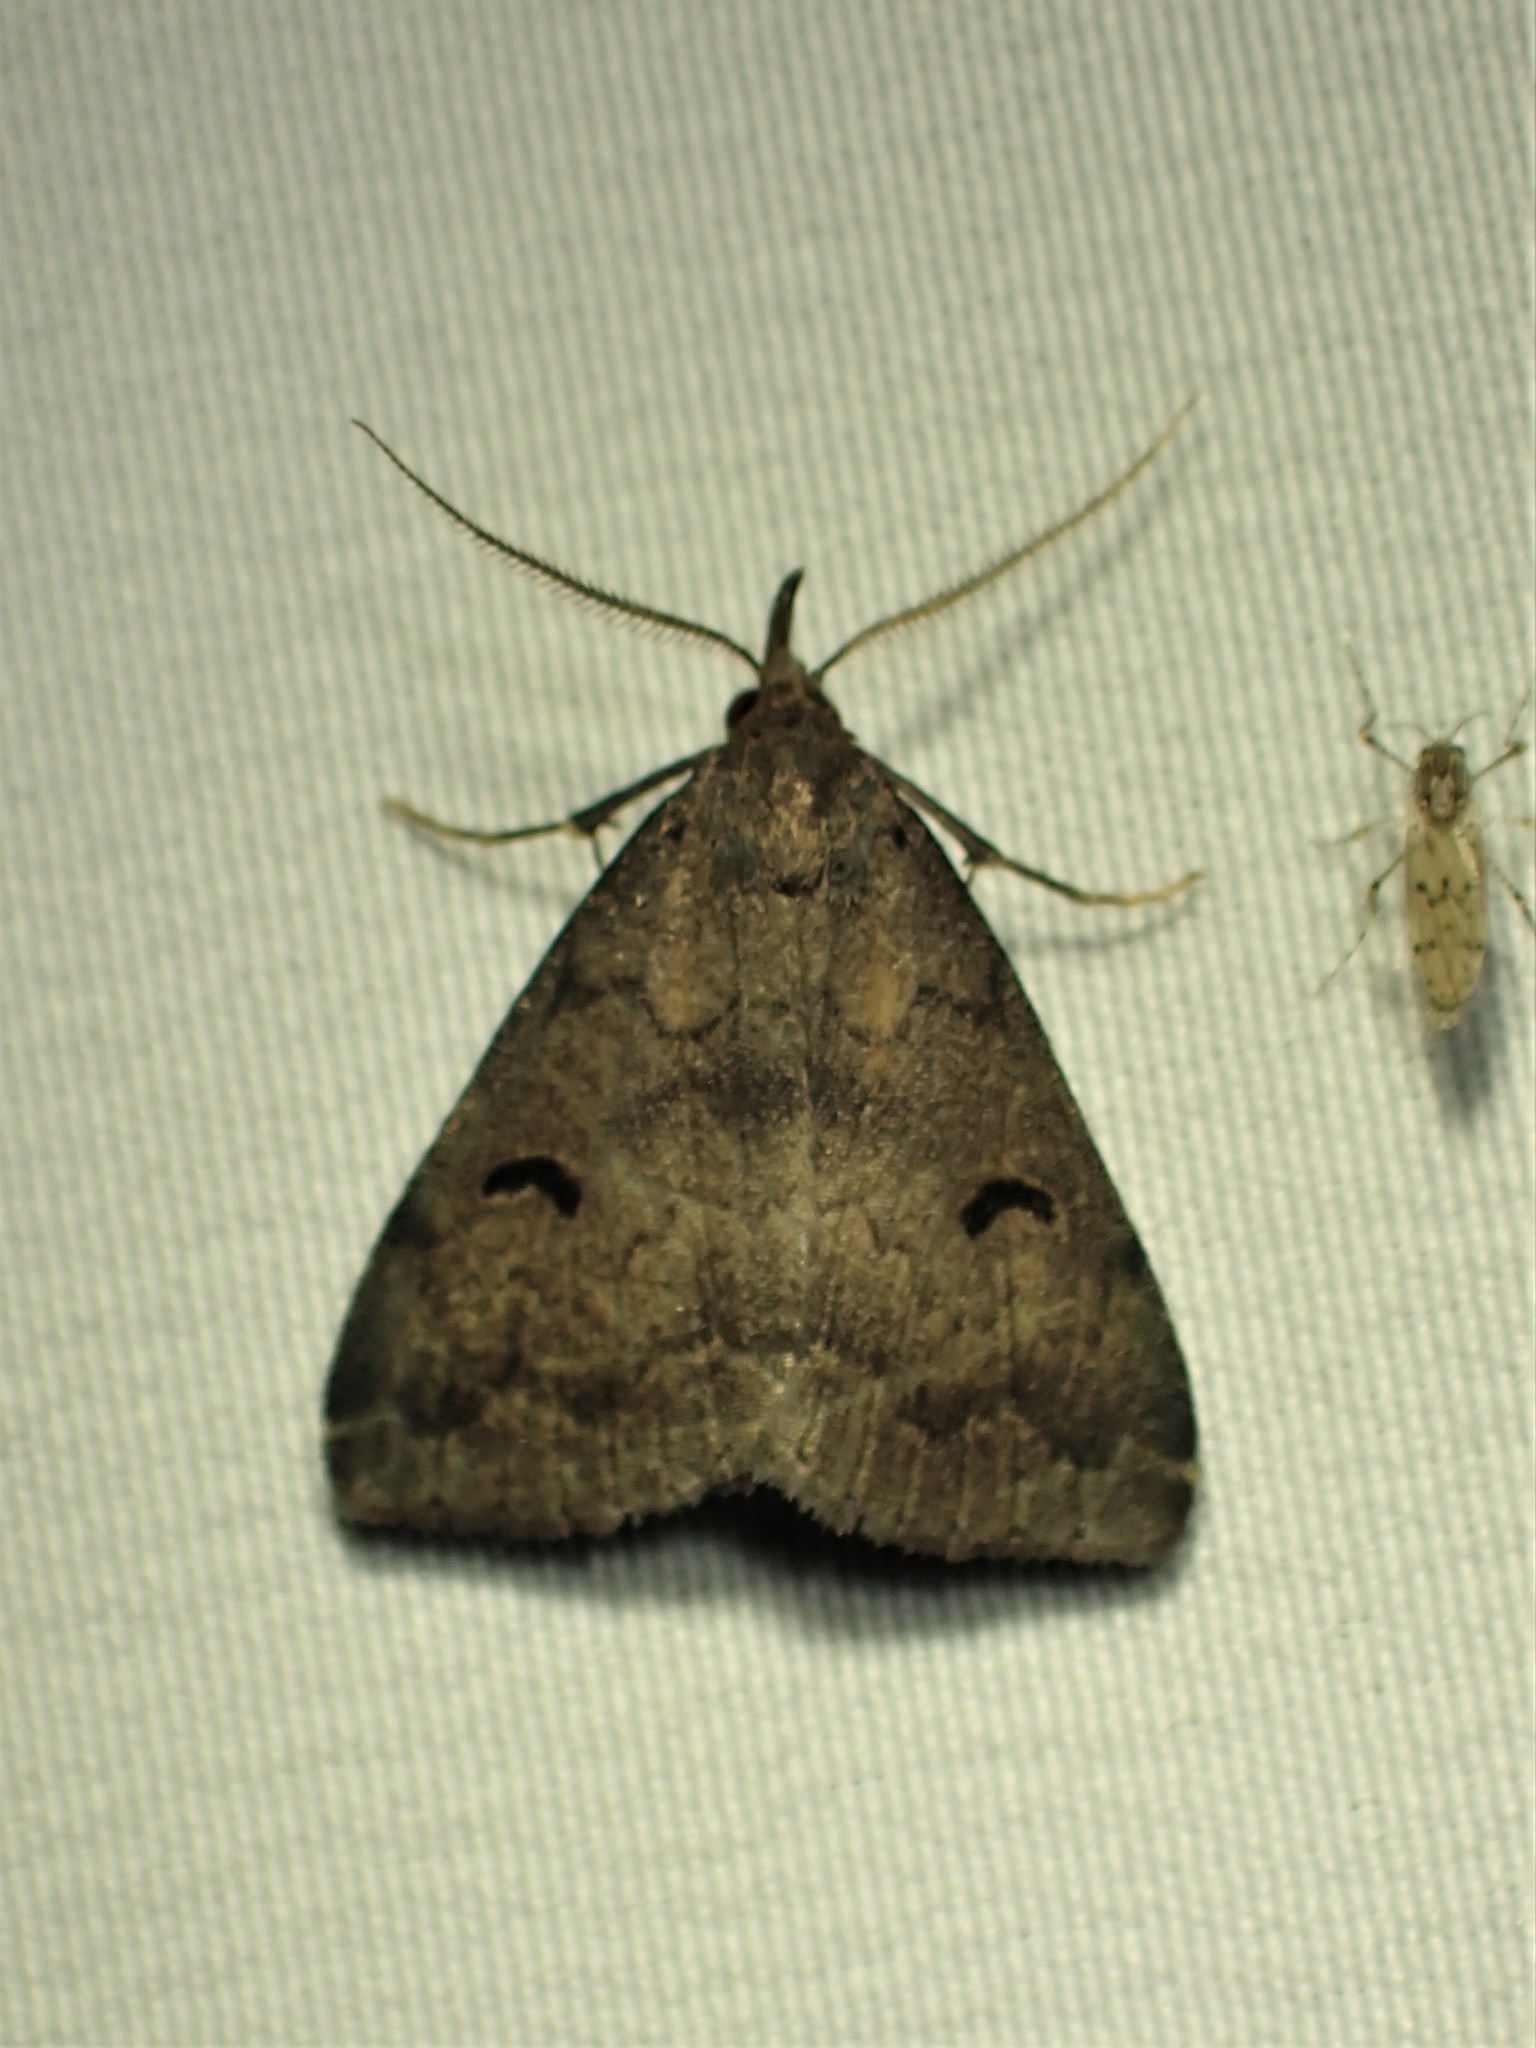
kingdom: Animalia
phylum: Arthropoda
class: Insecta
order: Lepidoptera
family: Erebidae
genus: Phalaenostola
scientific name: Phalaenostola hanhami
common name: Hanham's owlet
